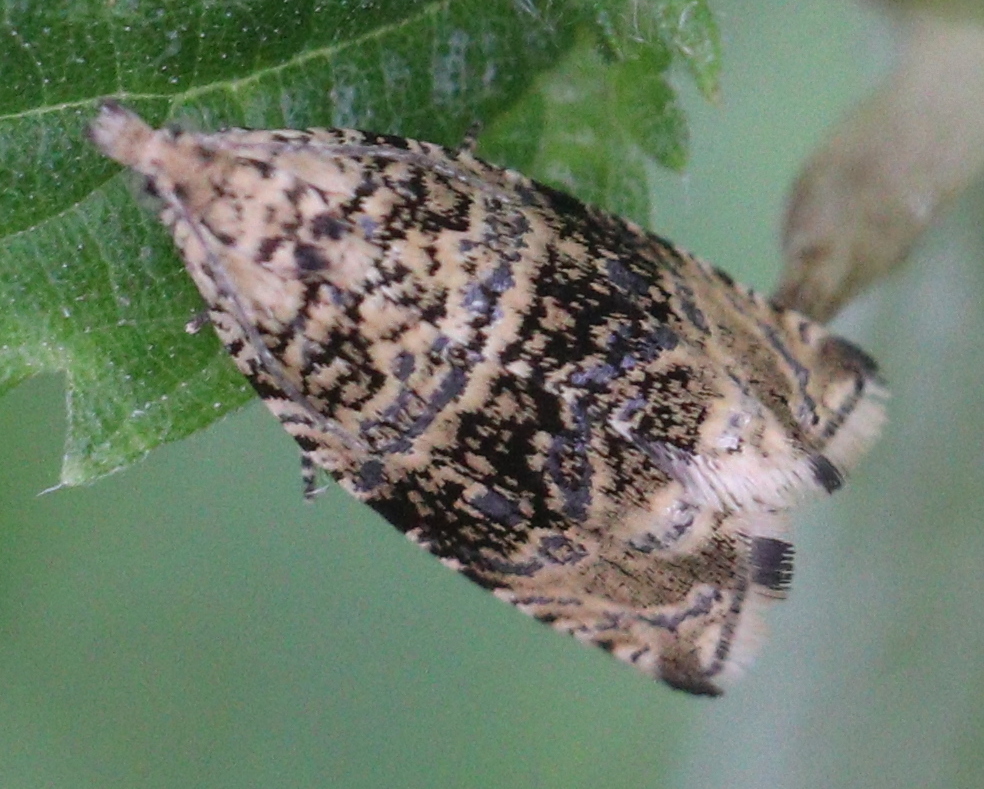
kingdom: Animalia
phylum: Arthropoda
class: Insecta
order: Lepidoptera
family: Tortricidae
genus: Syricoris
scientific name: Syricoris lacunana
